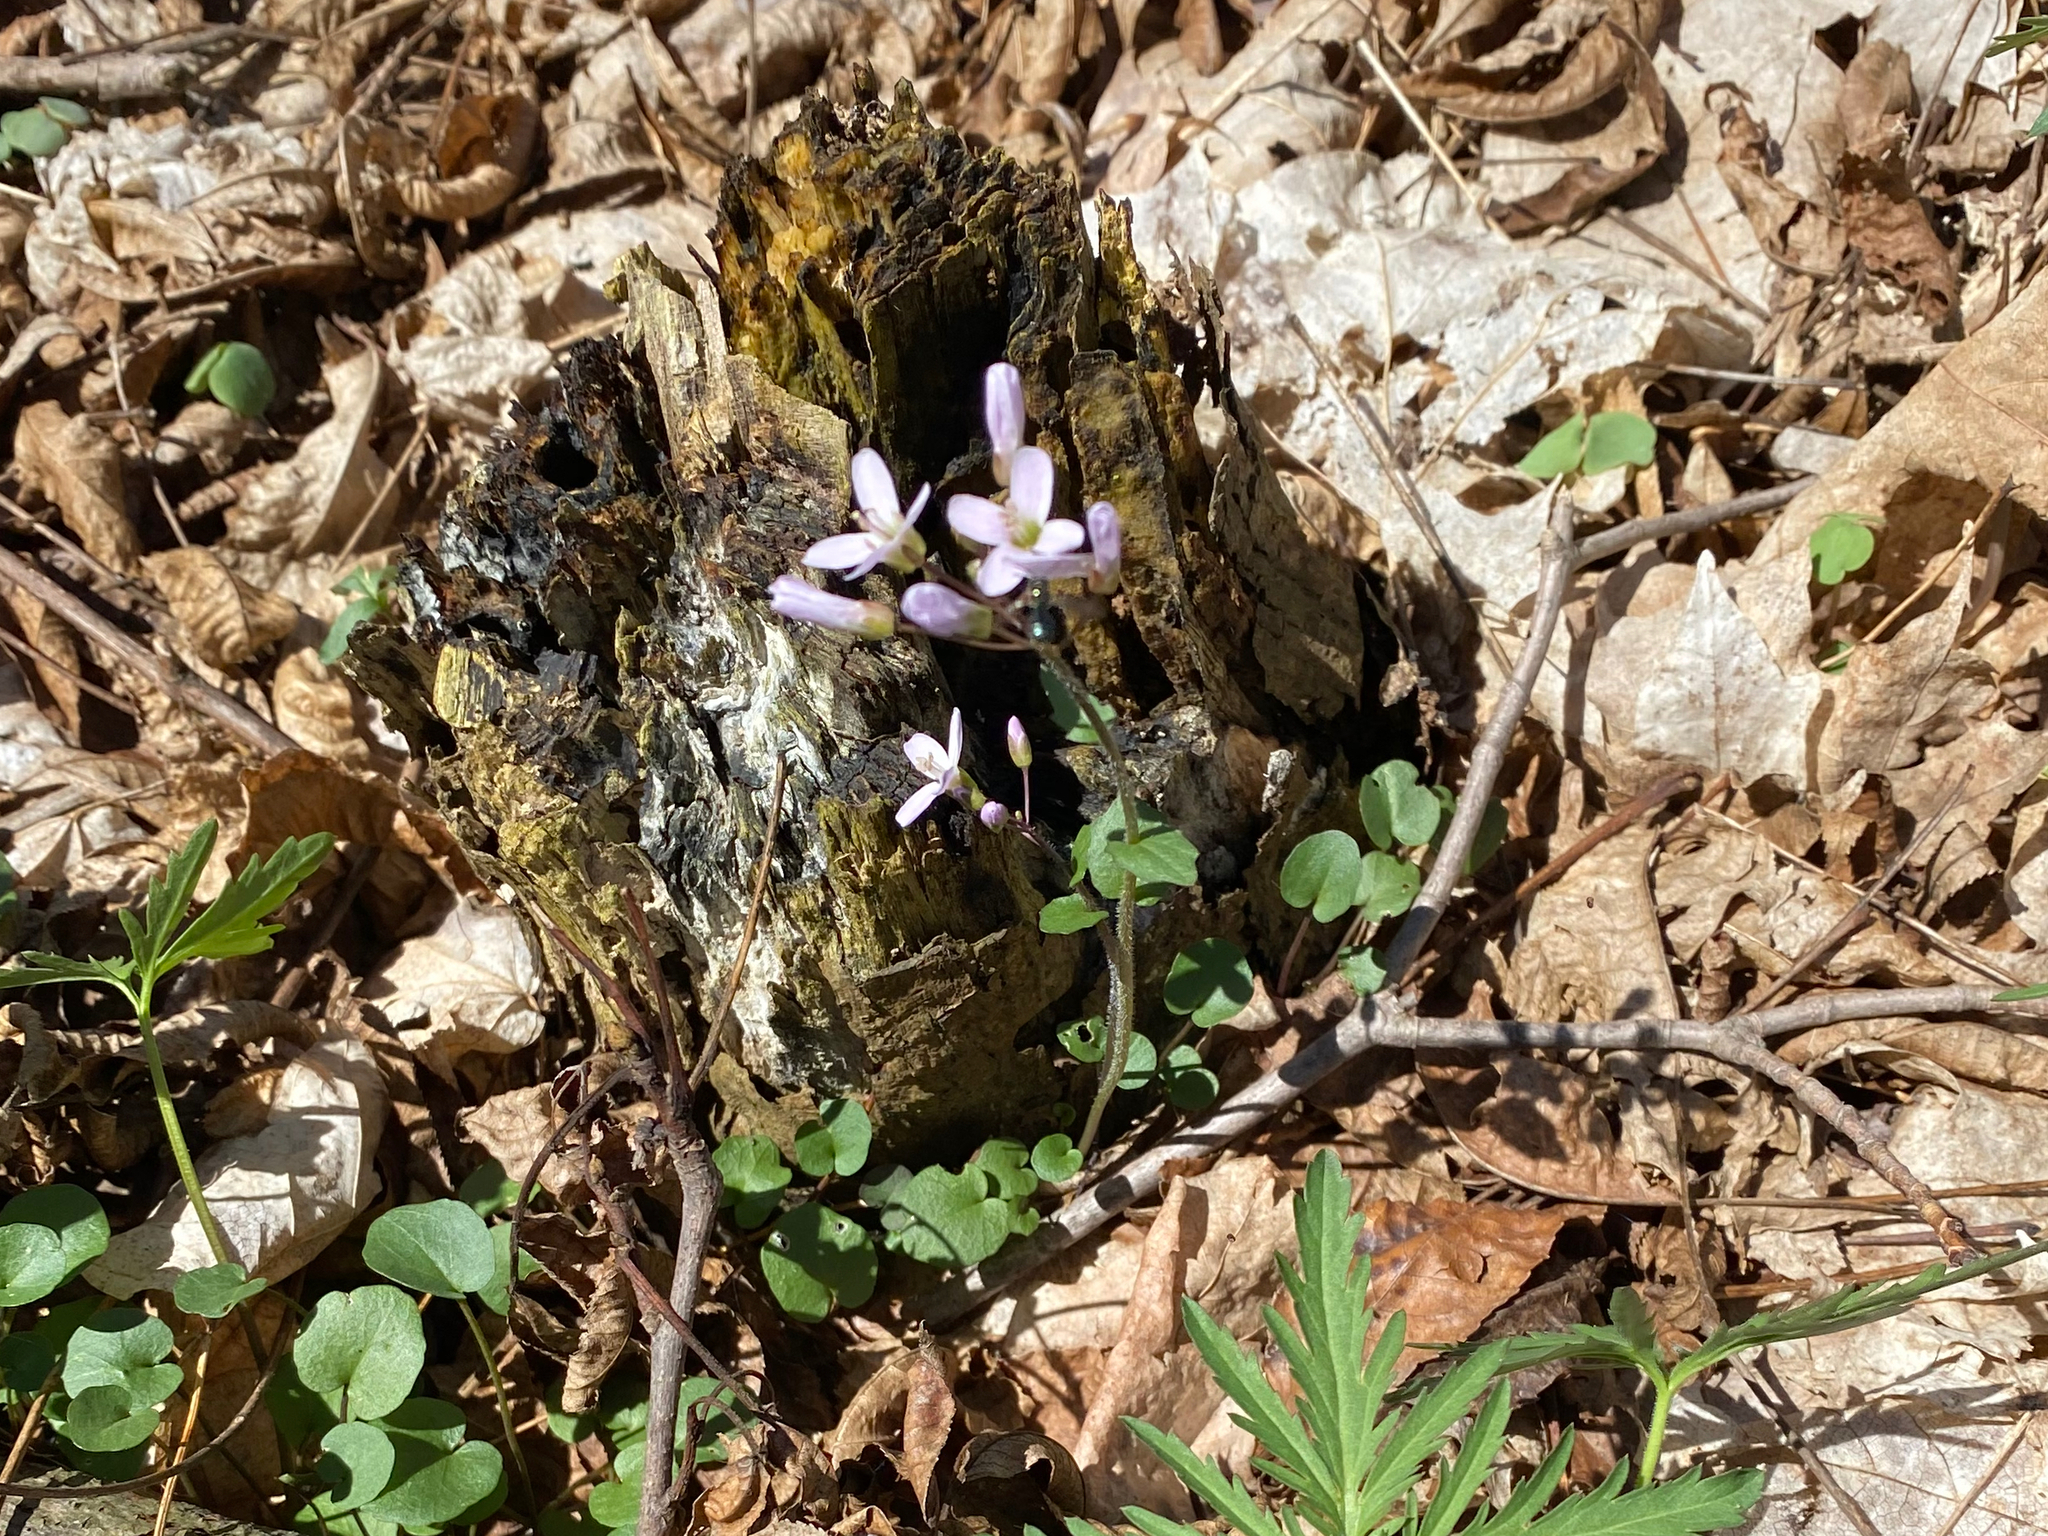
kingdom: Plantae
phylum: Tracheophyta
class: Magnoliopsida
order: Brassicales
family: Brassicaceae
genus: Cardamine
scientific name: Cardamine douglassii
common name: Purple cress
